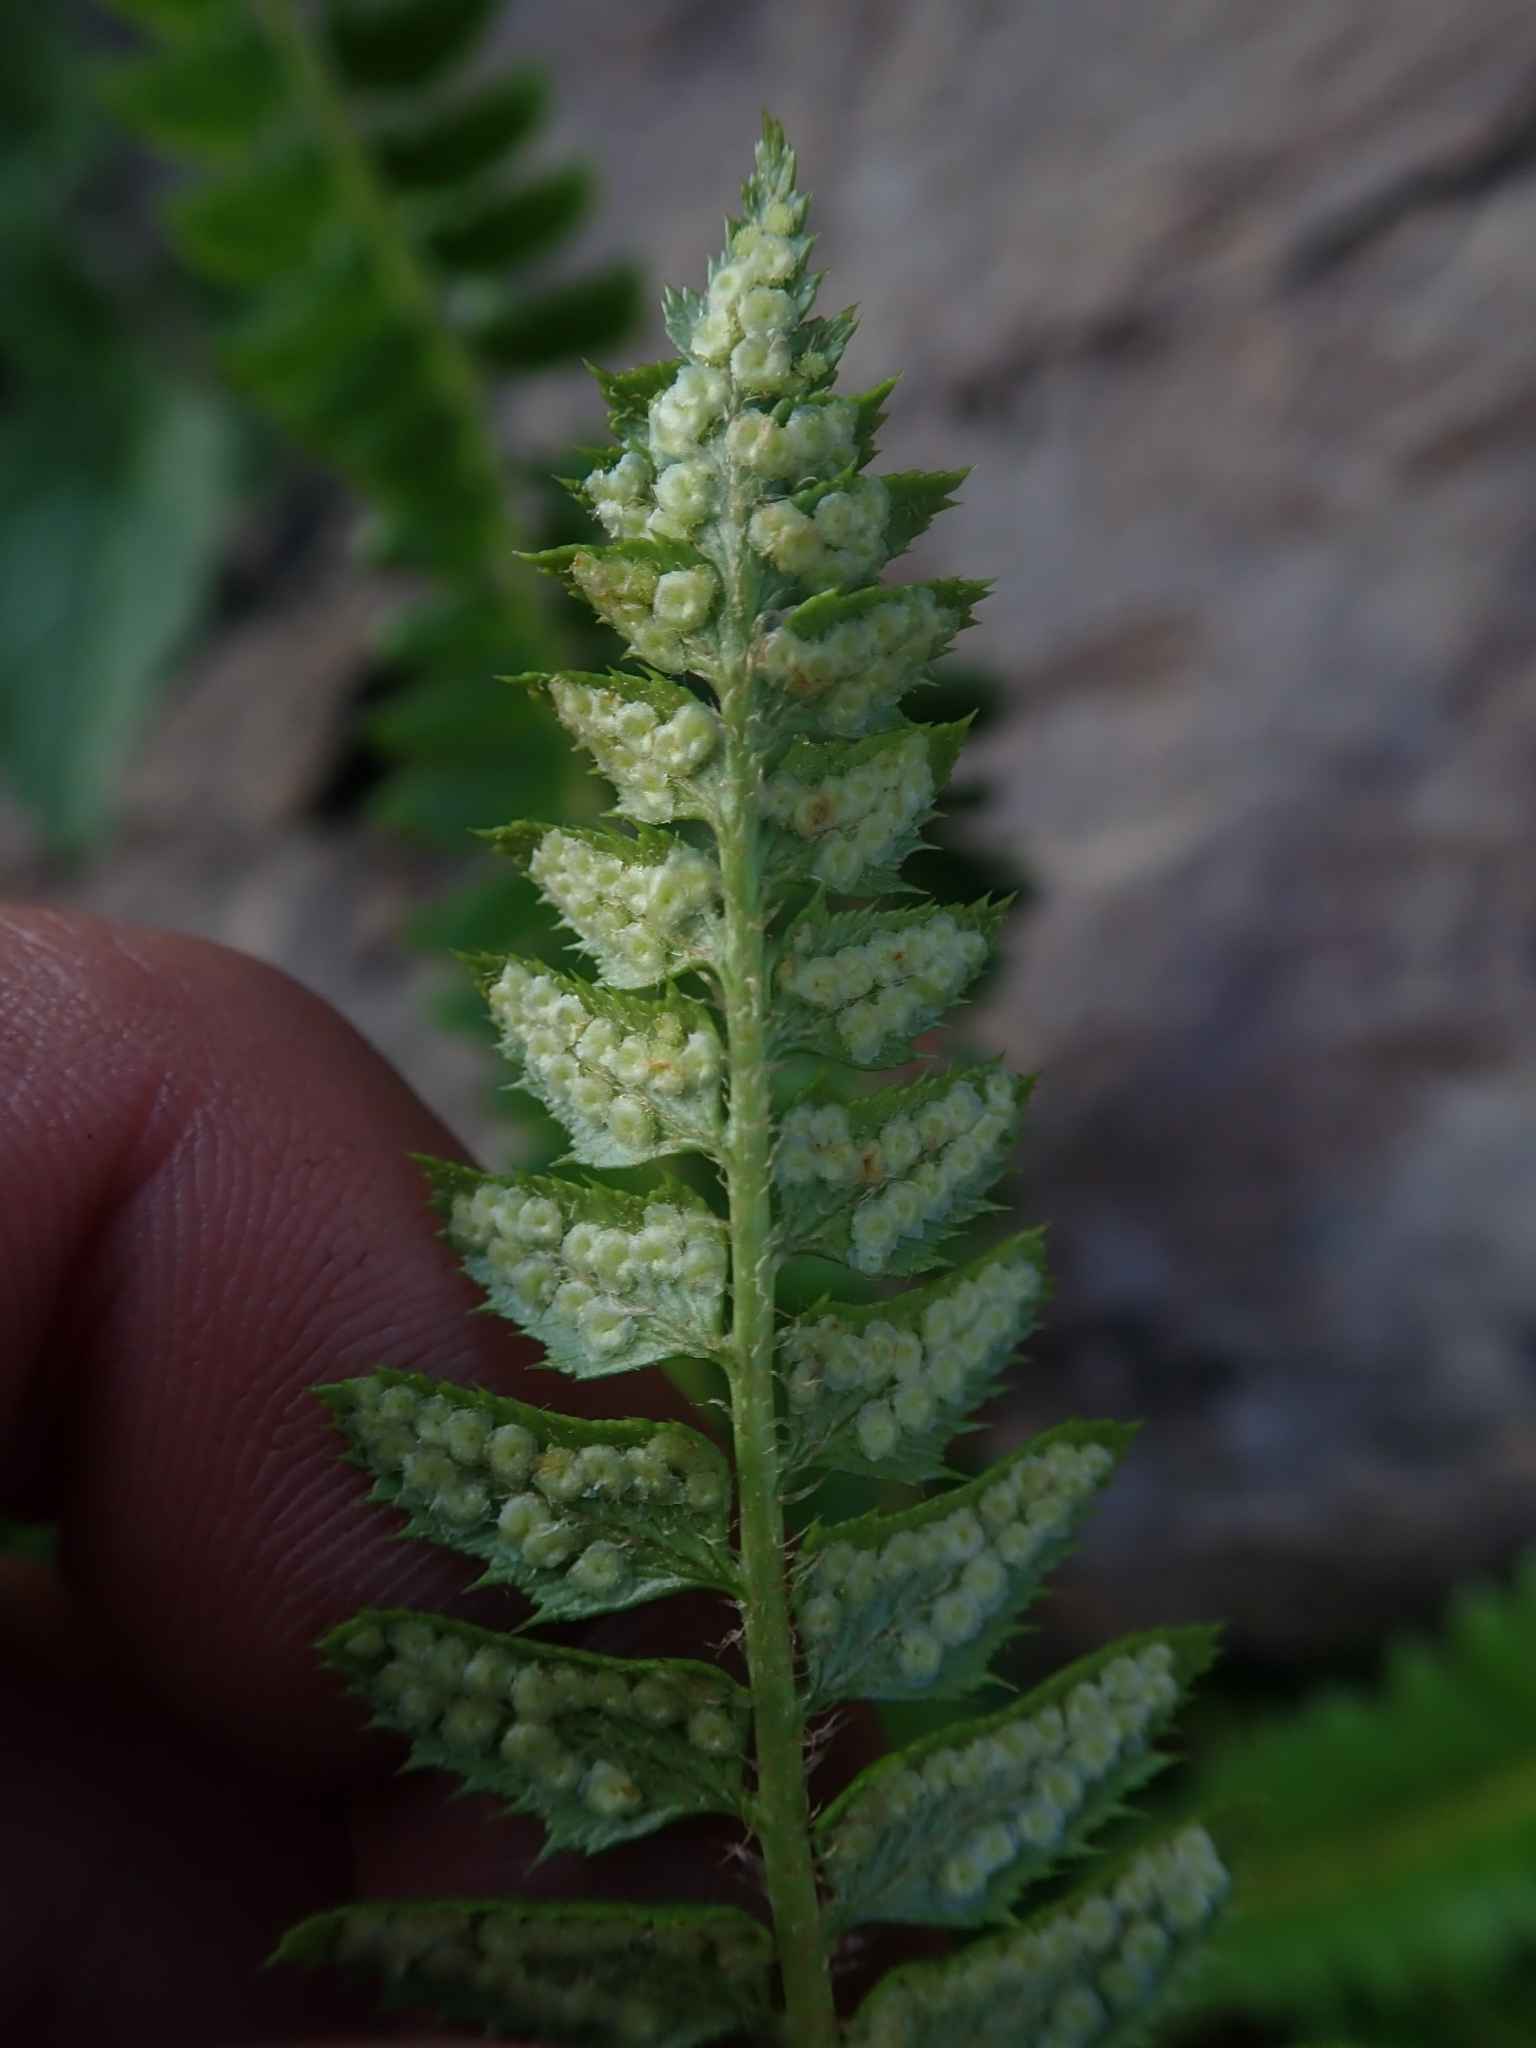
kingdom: Plantae
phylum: Tracheophyta
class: Polypodiopsida
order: Polypodiales
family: Dryopteridaceae
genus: Polystichum
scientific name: Polystichum lonchitis
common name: Holly fern
